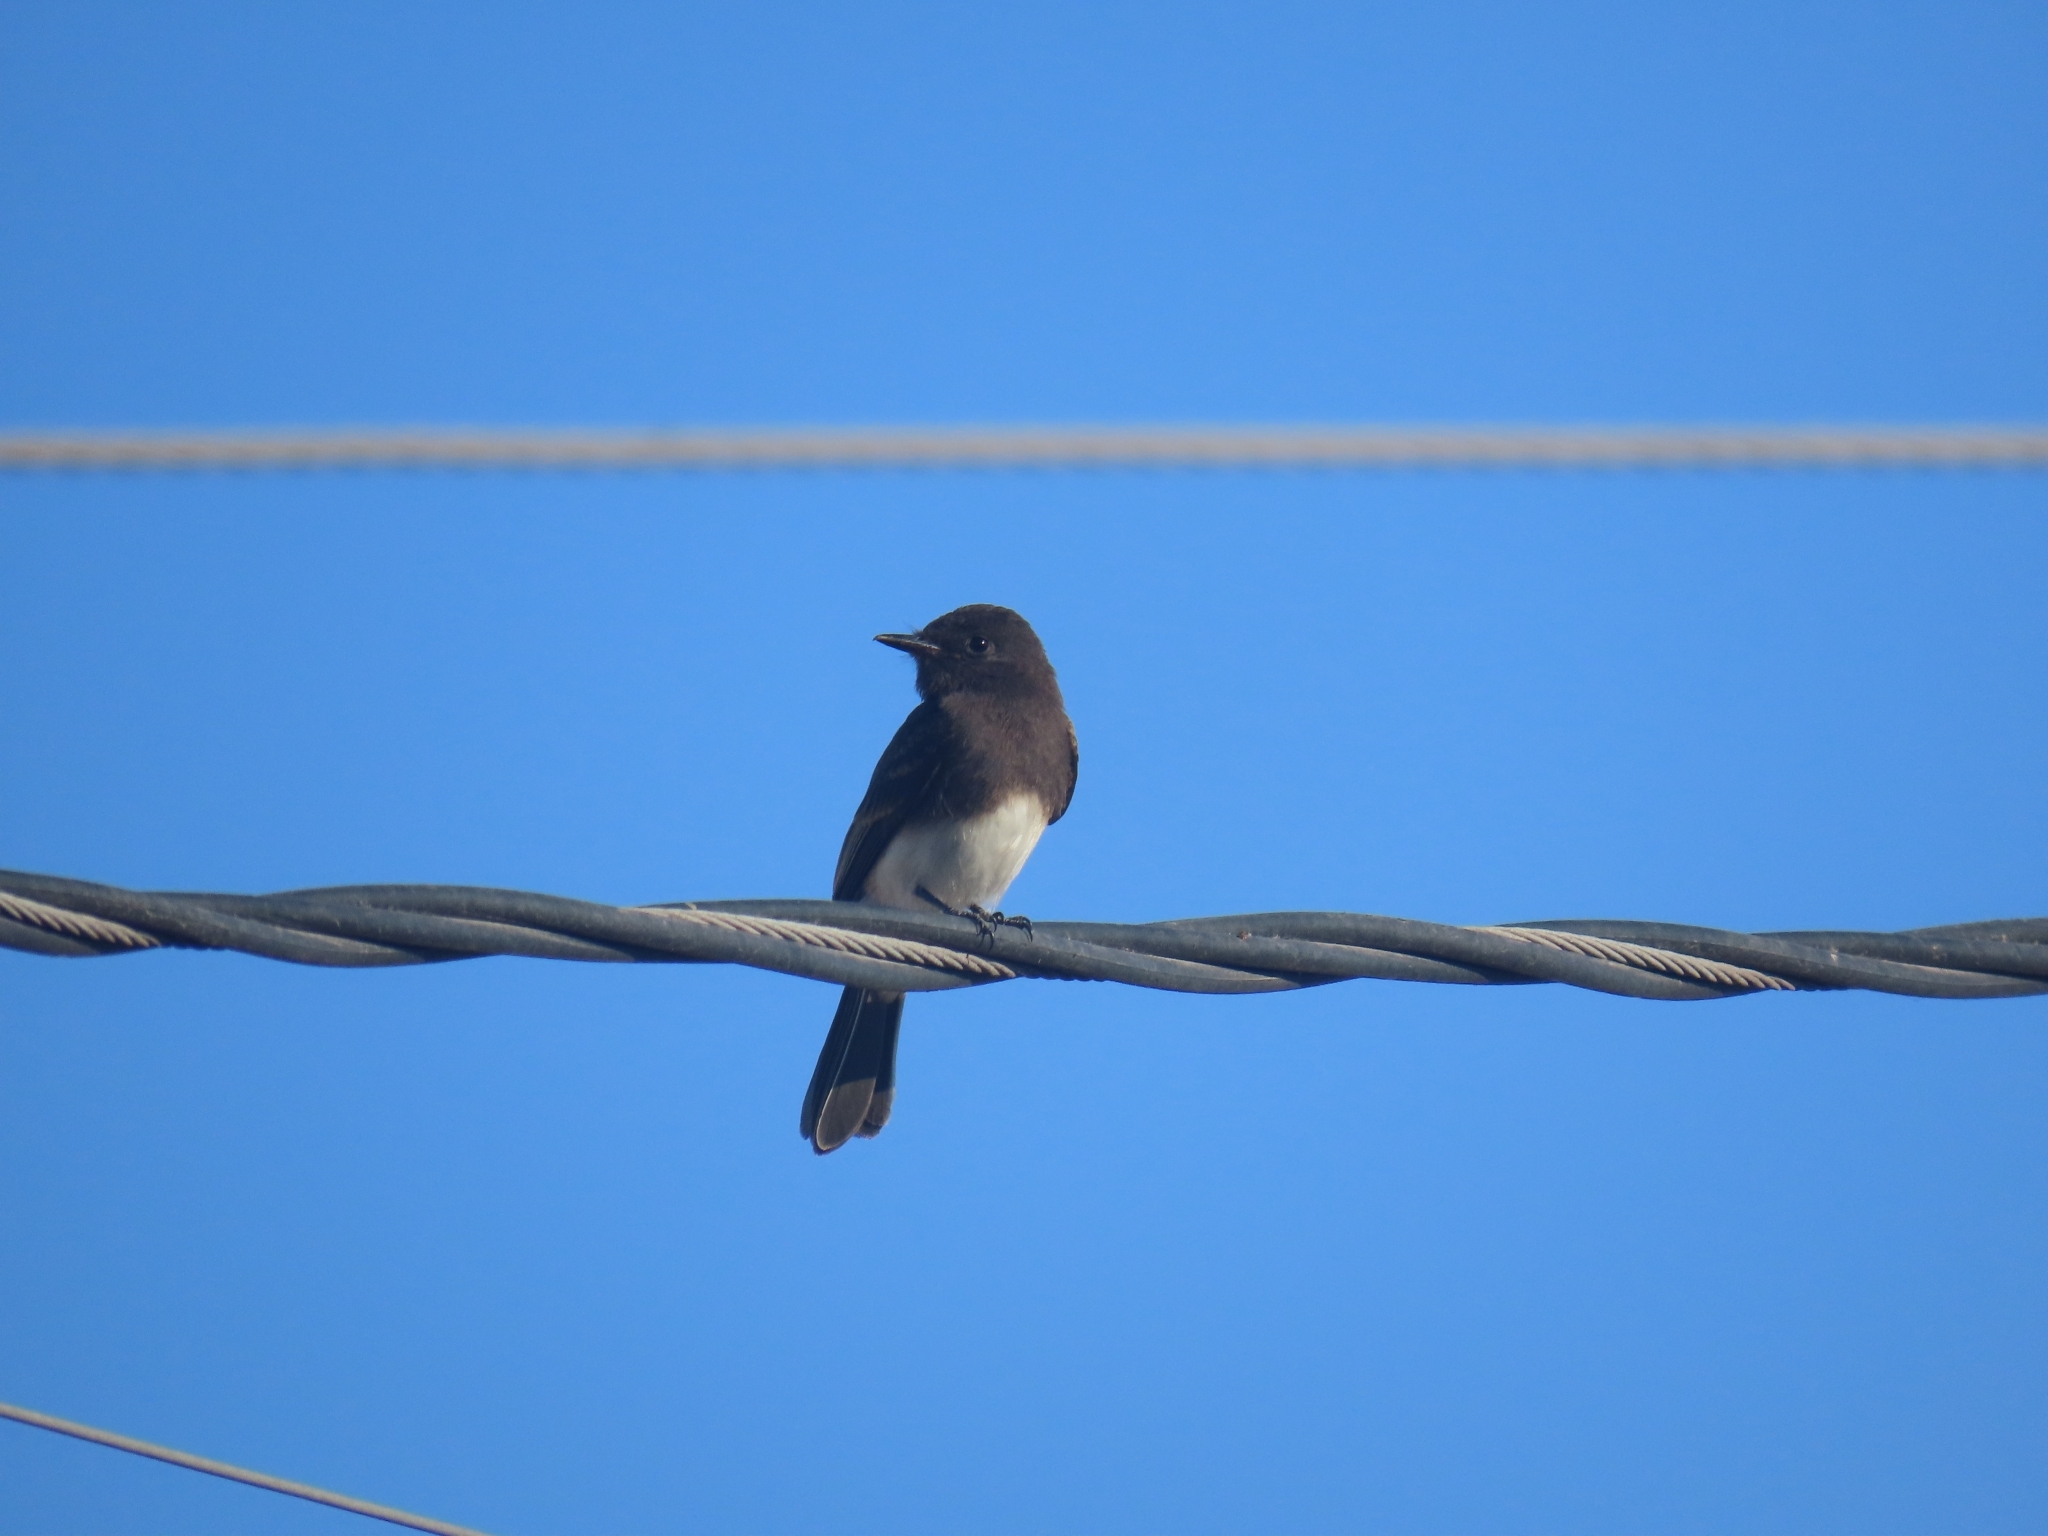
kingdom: Animalia
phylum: Chordata
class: Aves
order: Passeriformes
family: Tyrannidae
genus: Sayornis
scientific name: Sayornis nigricans
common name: Black phoebe
